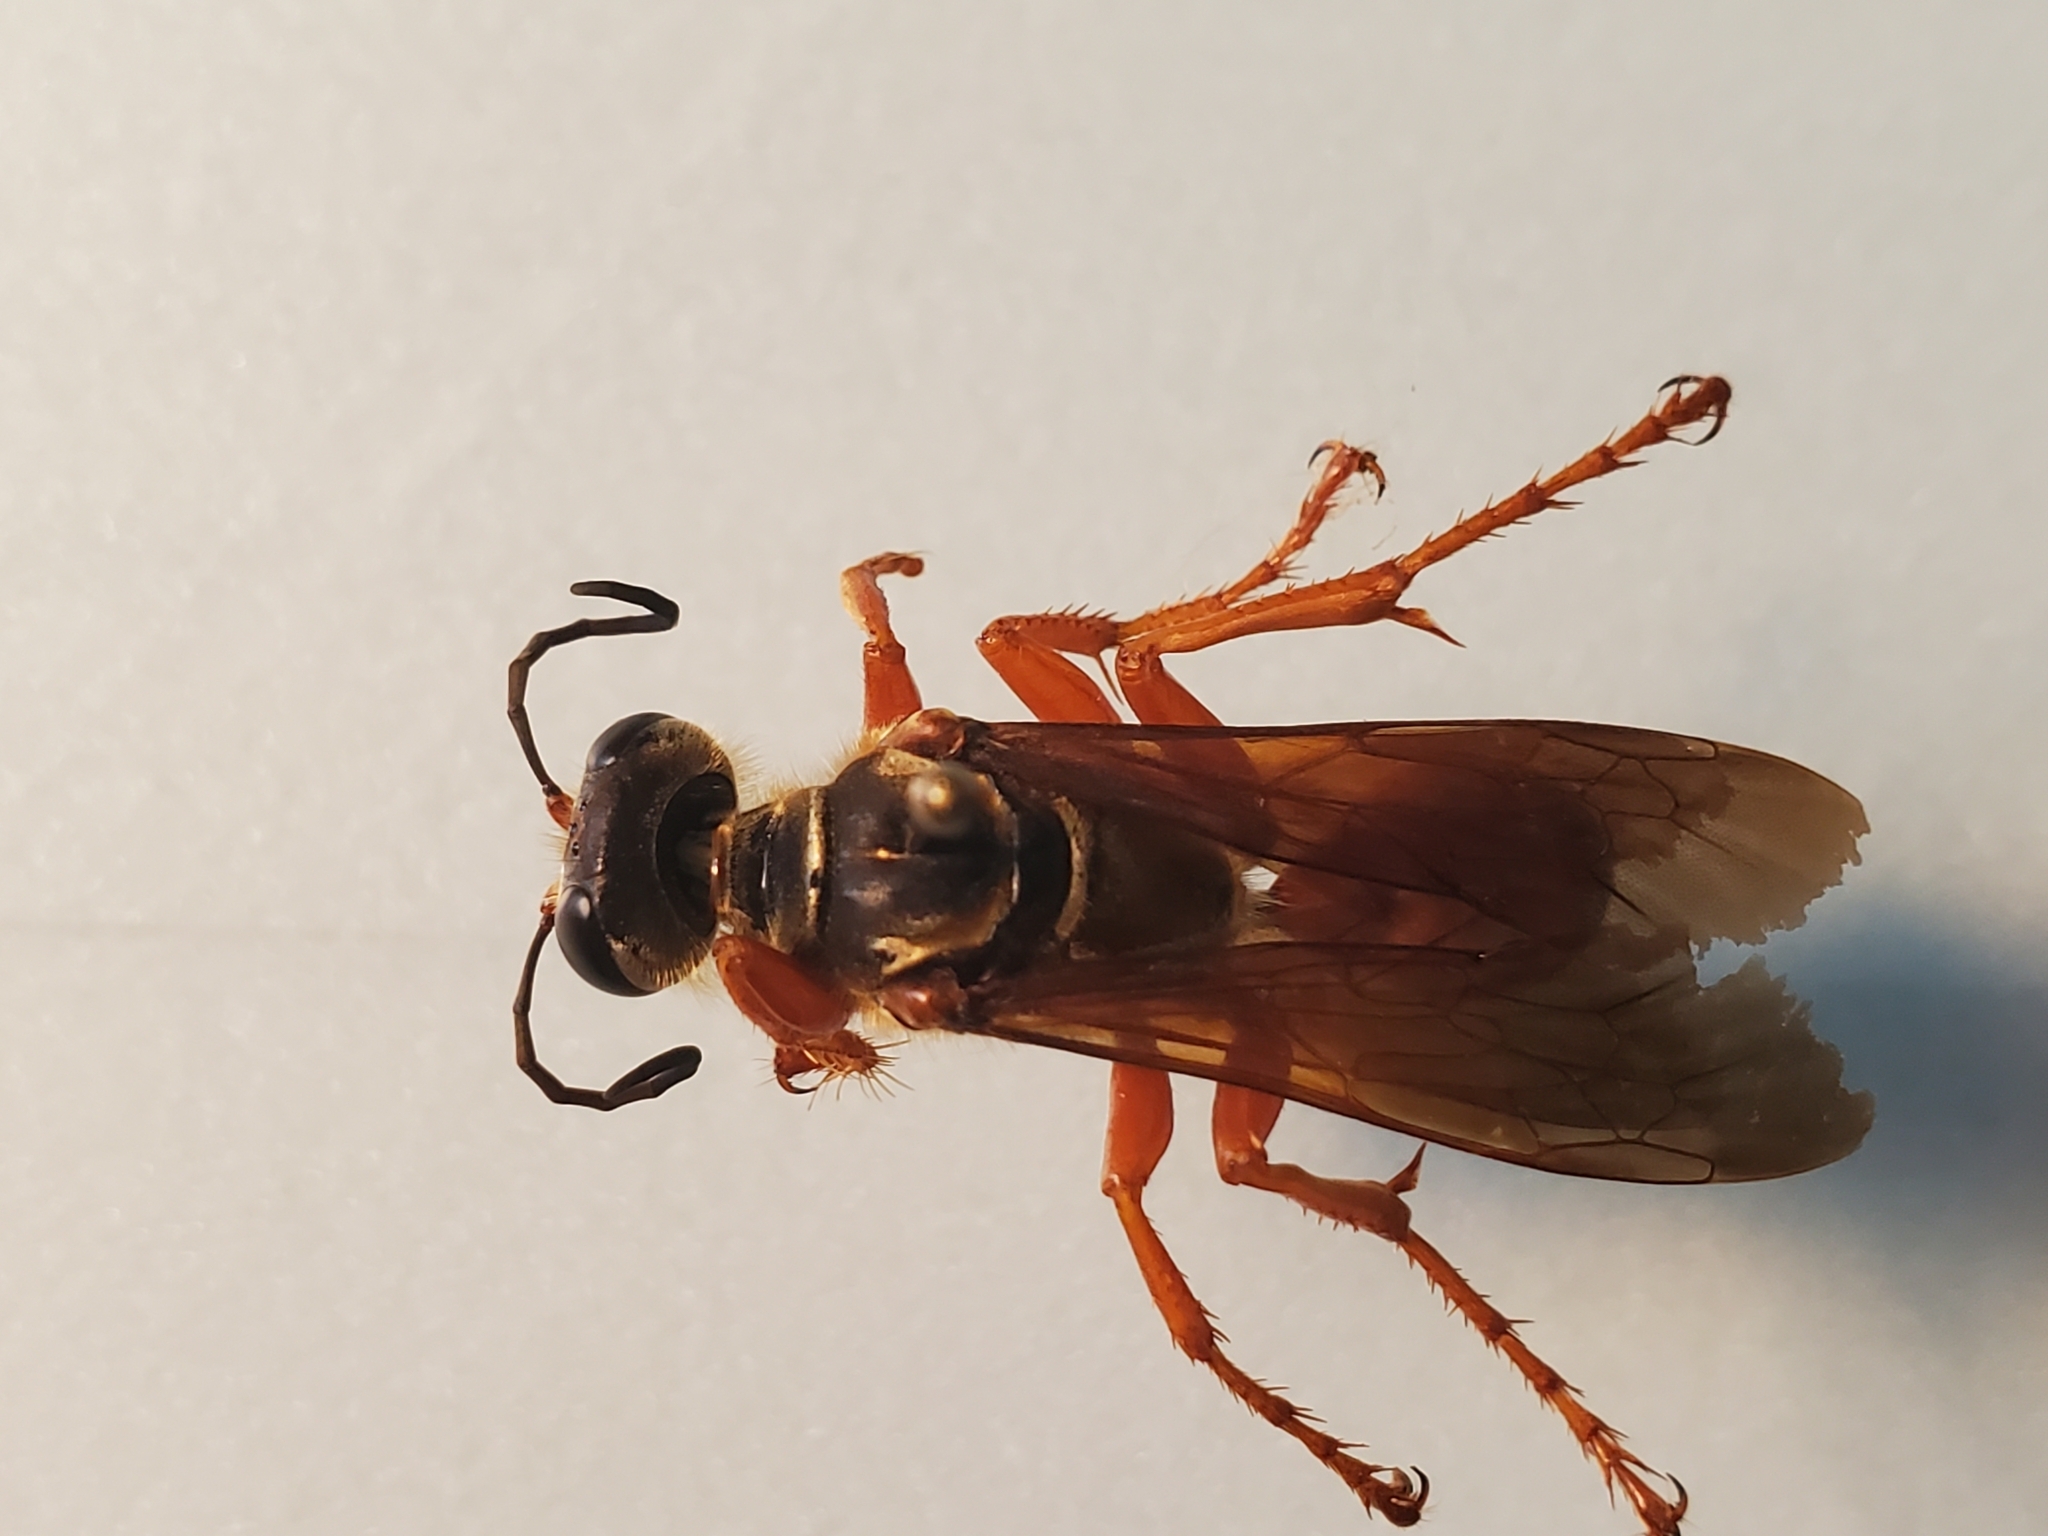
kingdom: Animalia
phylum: Arthropoda
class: Insecta
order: Hymenoptera
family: Sphecidae
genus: Sphex
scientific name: Sphex ichneumoneus
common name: Great golden digger wasp
